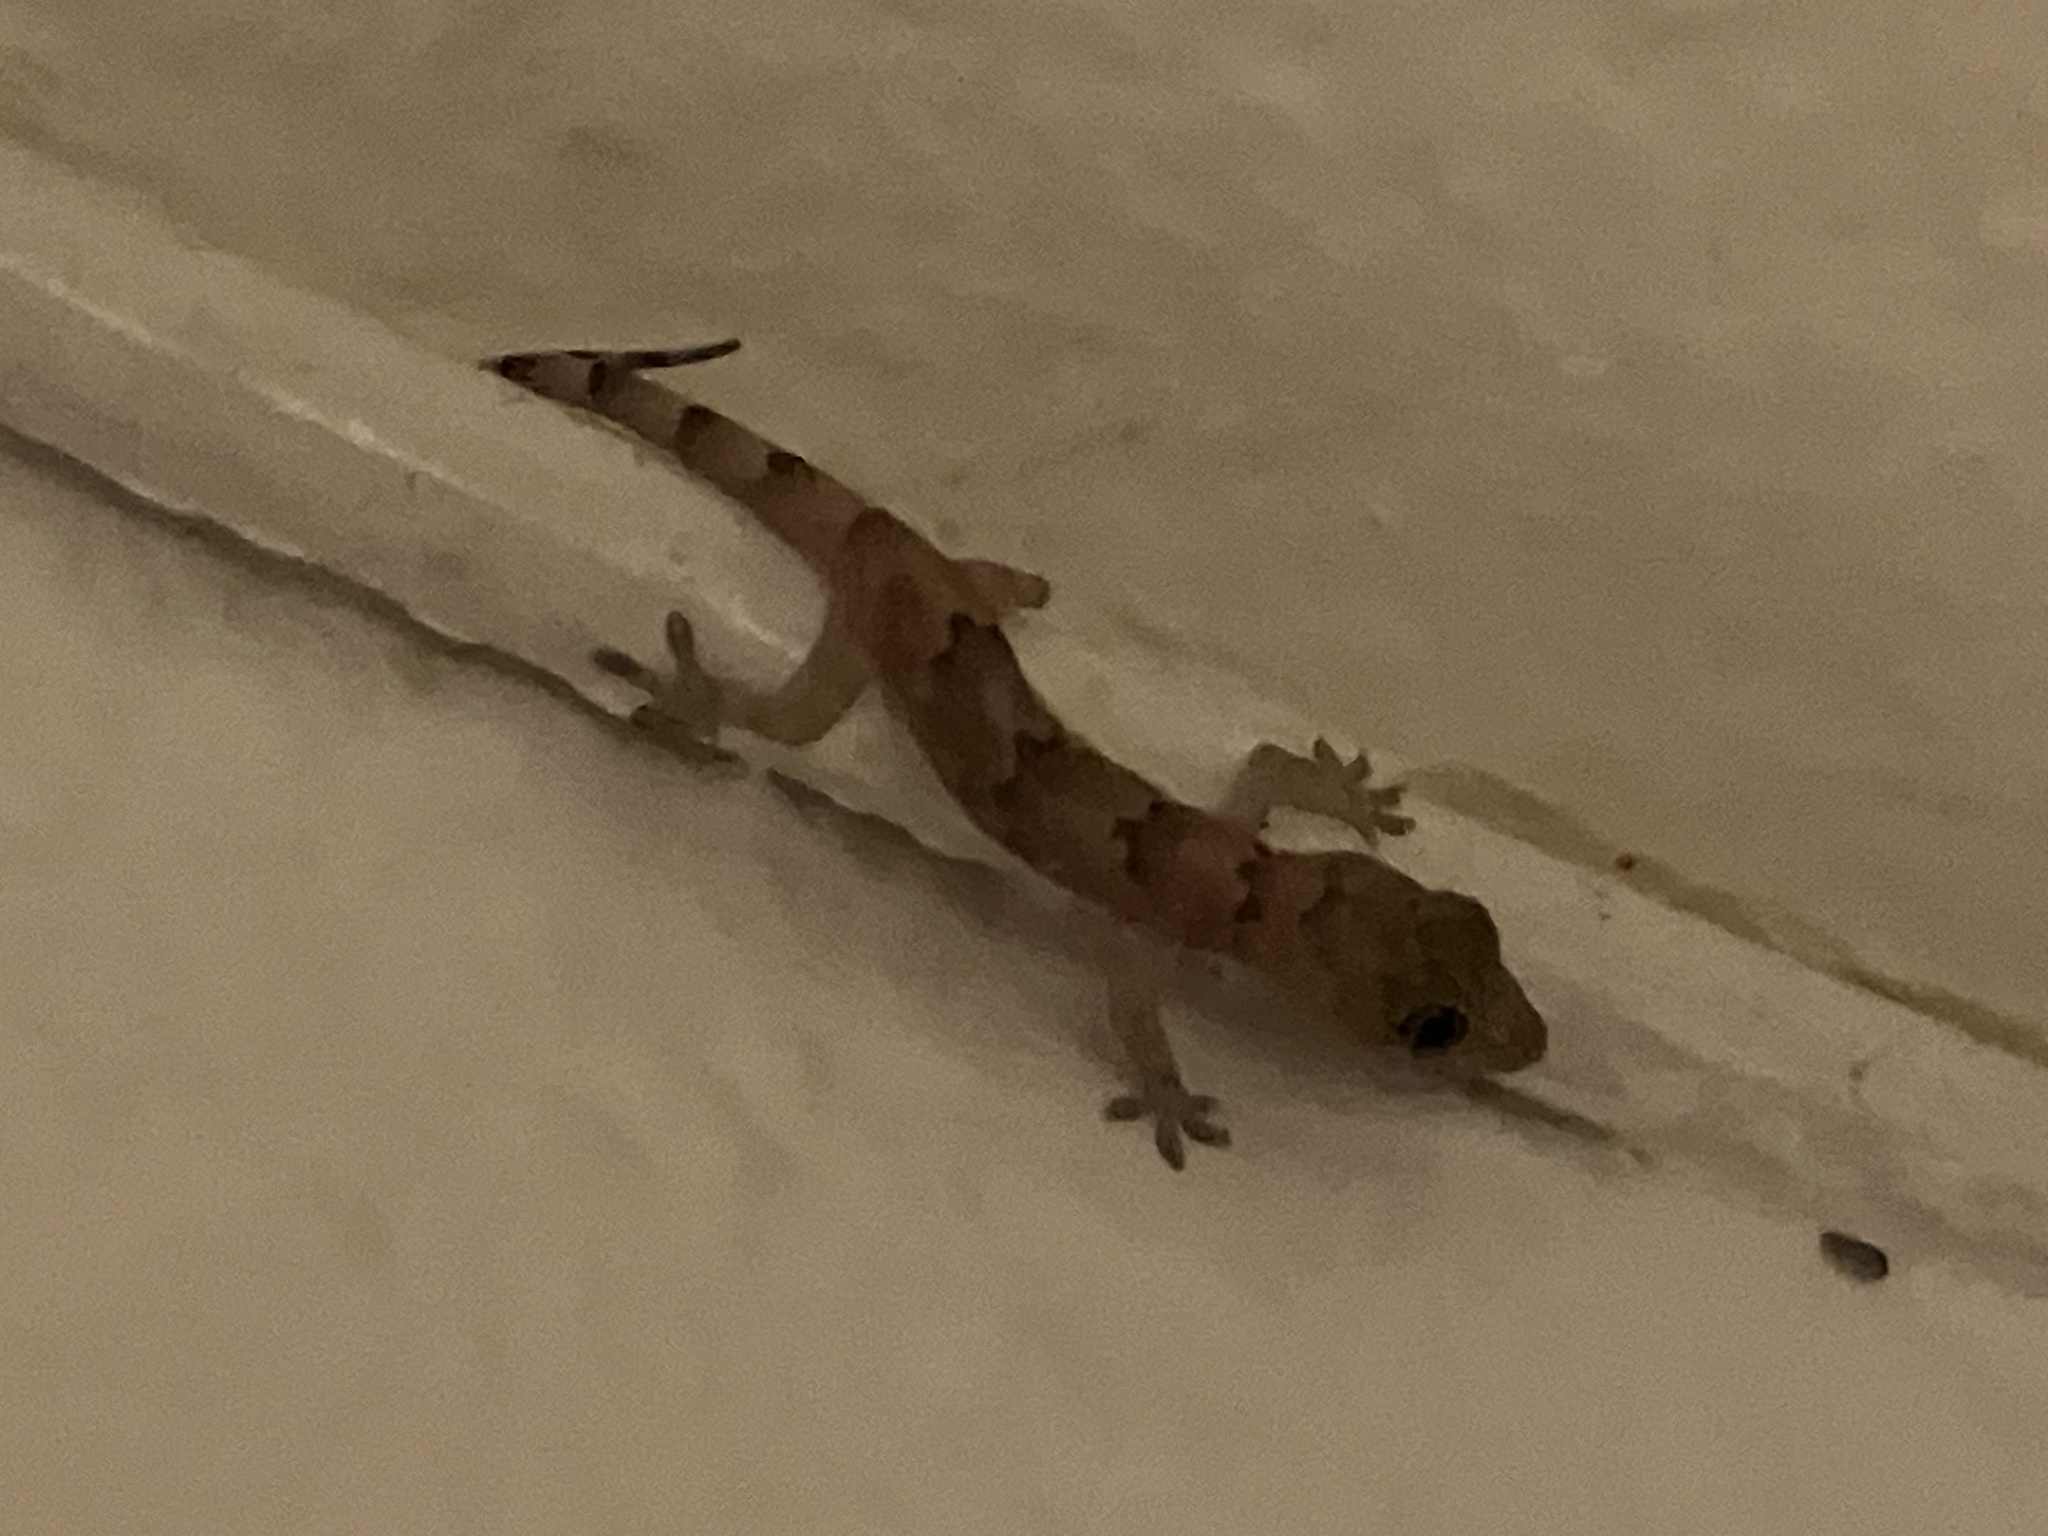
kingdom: Animalia
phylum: Chordata
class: Squamata
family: Gekkonidae
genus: Hemidactylus
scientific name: Hemidactylus mabouia
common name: House gecko
